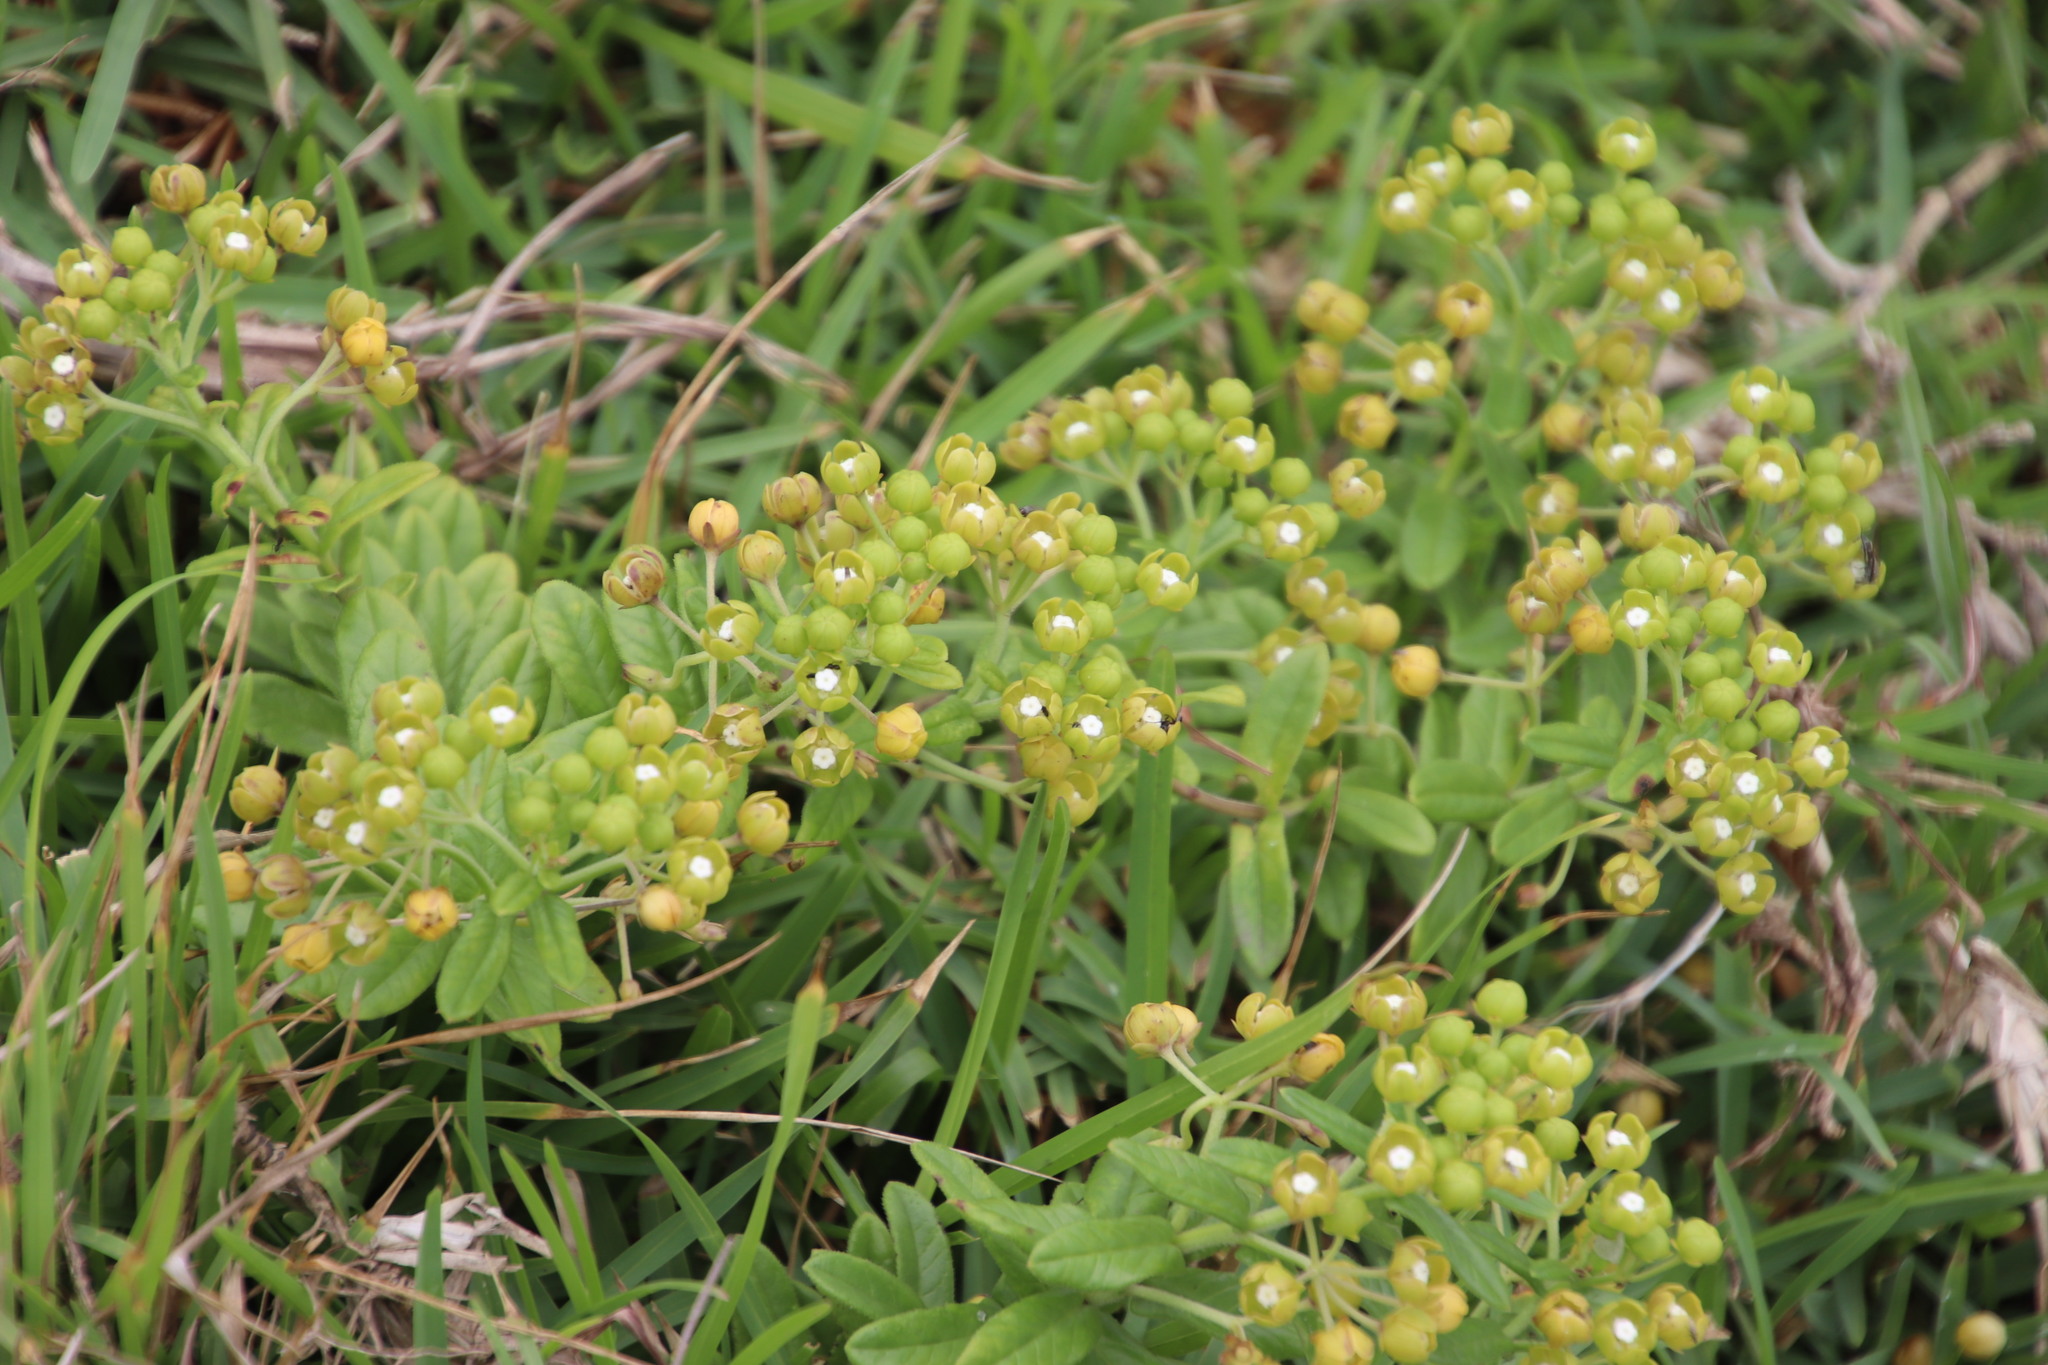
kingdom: Plantae
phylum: Tracheophyta
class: Magnoliopsida
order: Gentianales
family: Apocynaceae
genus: Schizoglossum
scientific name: Schizoglossum atropurpureum
